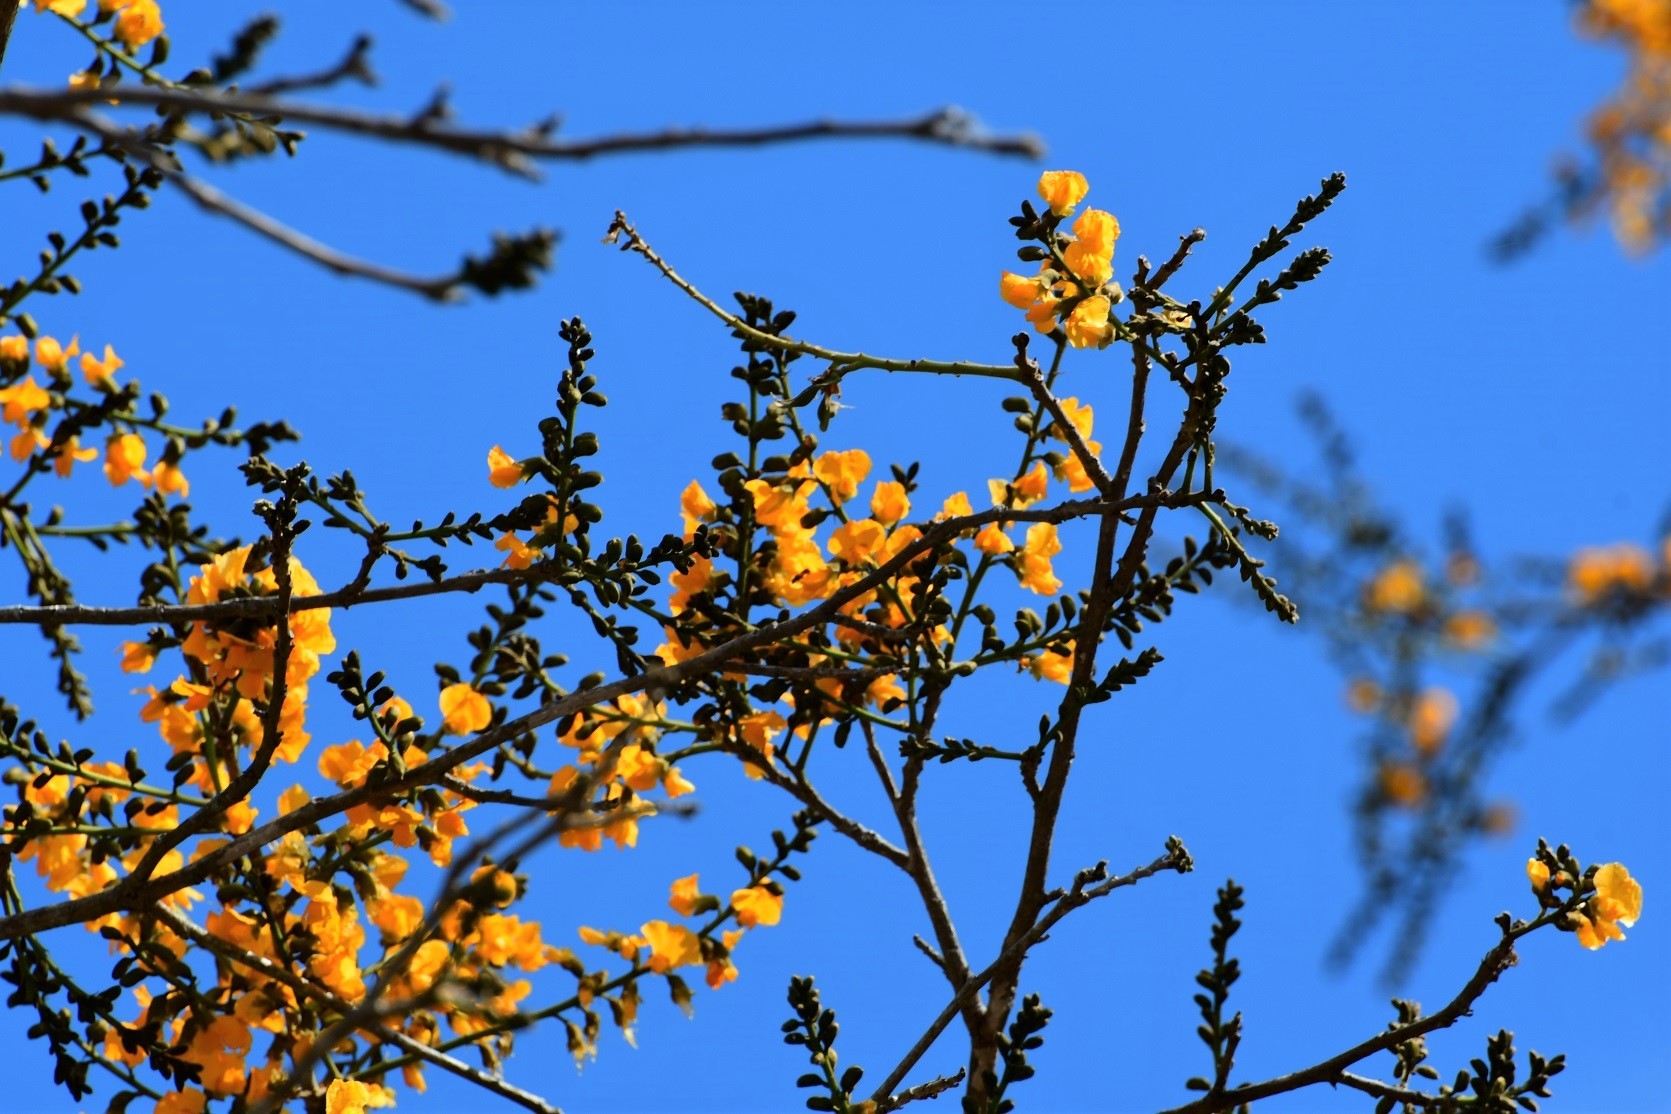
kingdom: Plantae
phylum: Tracheophyta
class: Magnoliopsida
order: Fabales
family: Fabaceae
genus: Cenostigma
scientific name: Cenostigma eriostachys
